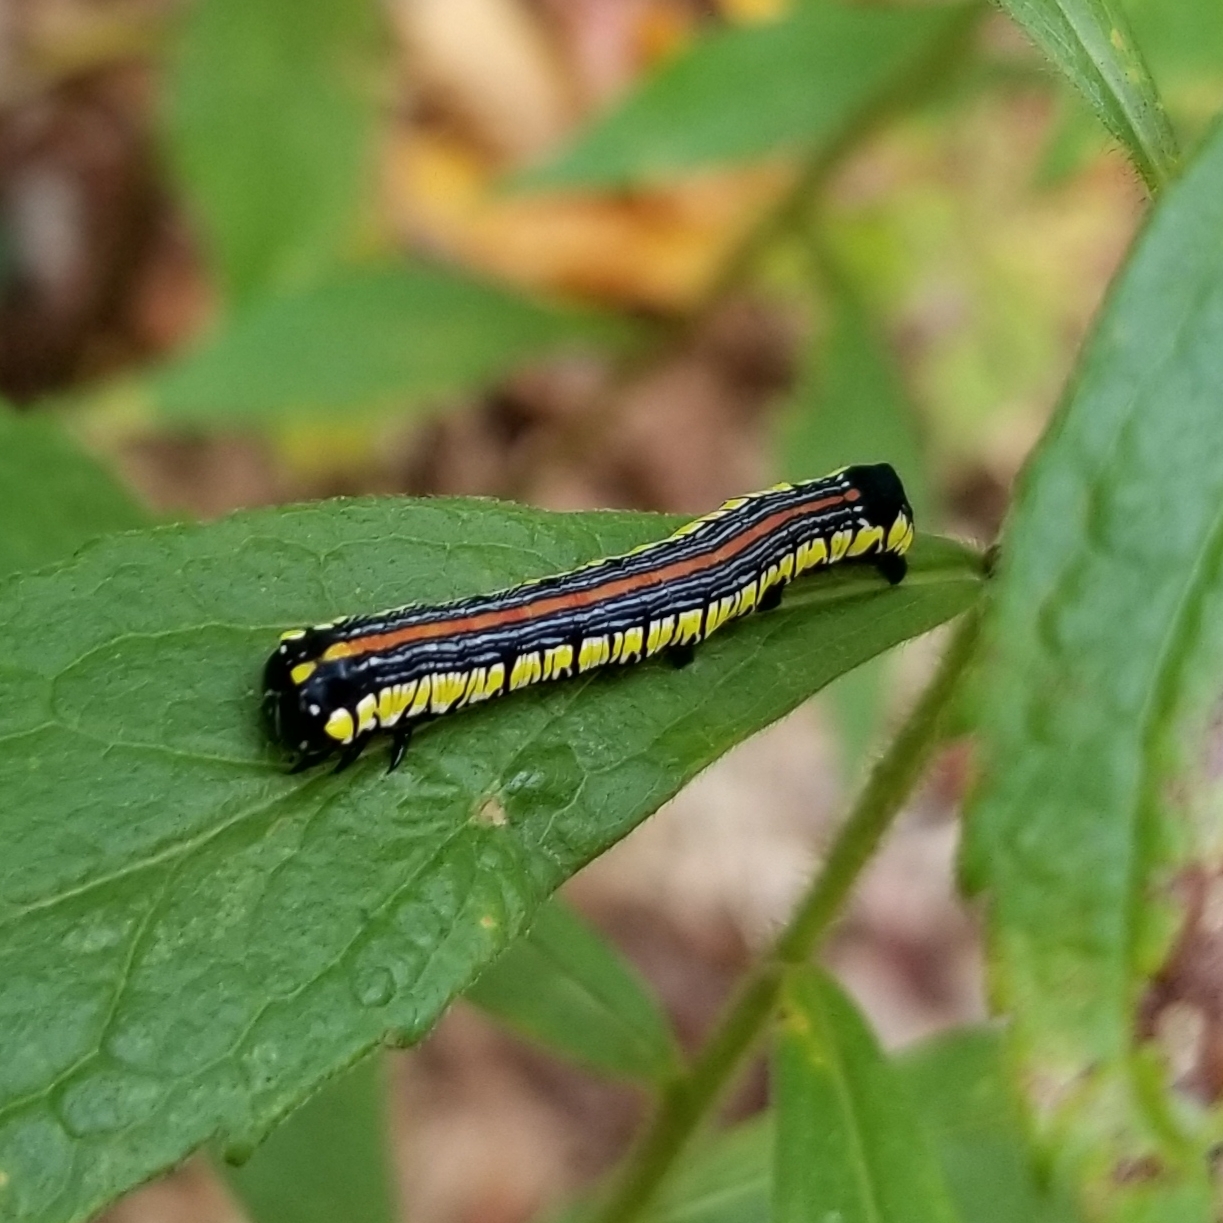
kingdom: Animalia
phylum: Arthropoda
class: Insecta
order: Lepidoptera
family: Noctuidae
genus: Cucullia
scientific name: Cucullia convexipennis
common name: Brown-hooded owlet
